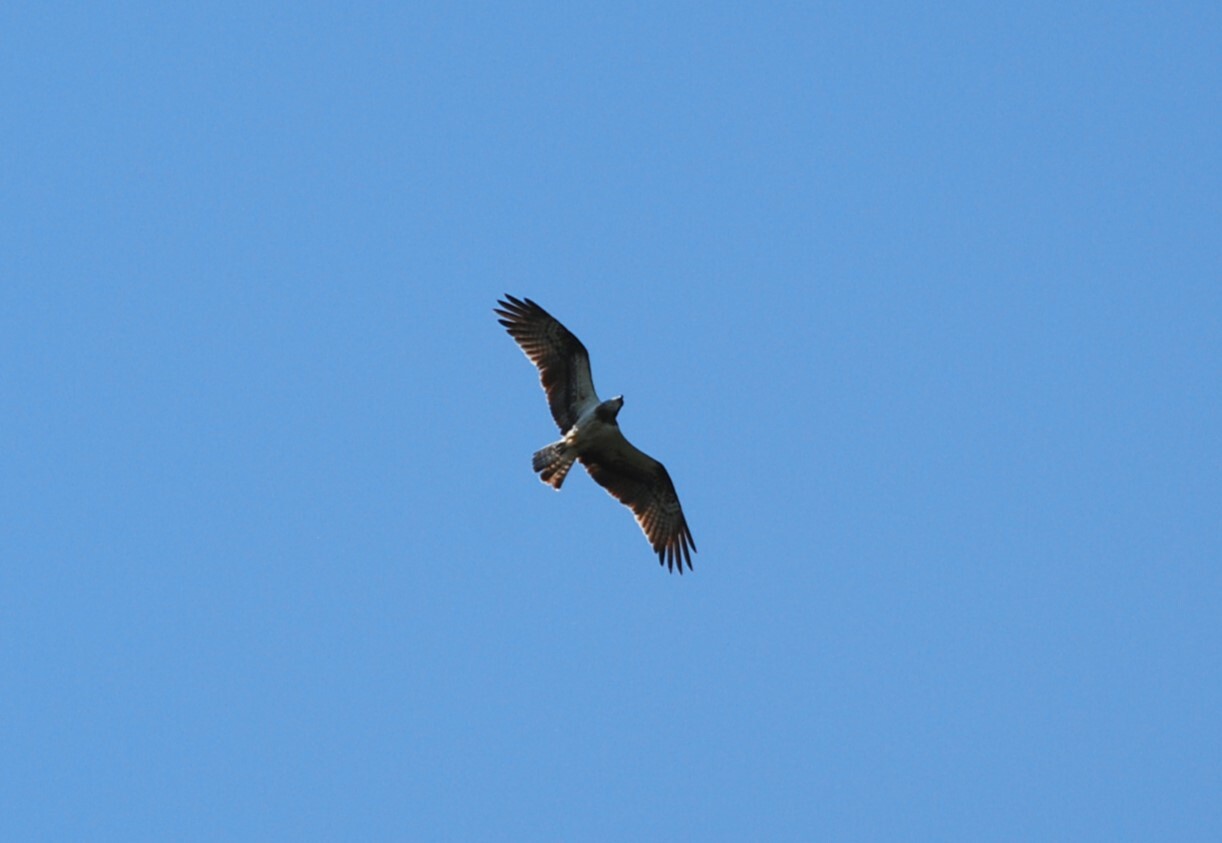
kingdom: Animalia
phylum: Chordata
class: Aves
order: Accipitriformes
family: Pandionidae
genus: Pandion
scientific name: Pandion haliaetus
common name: Osprey
